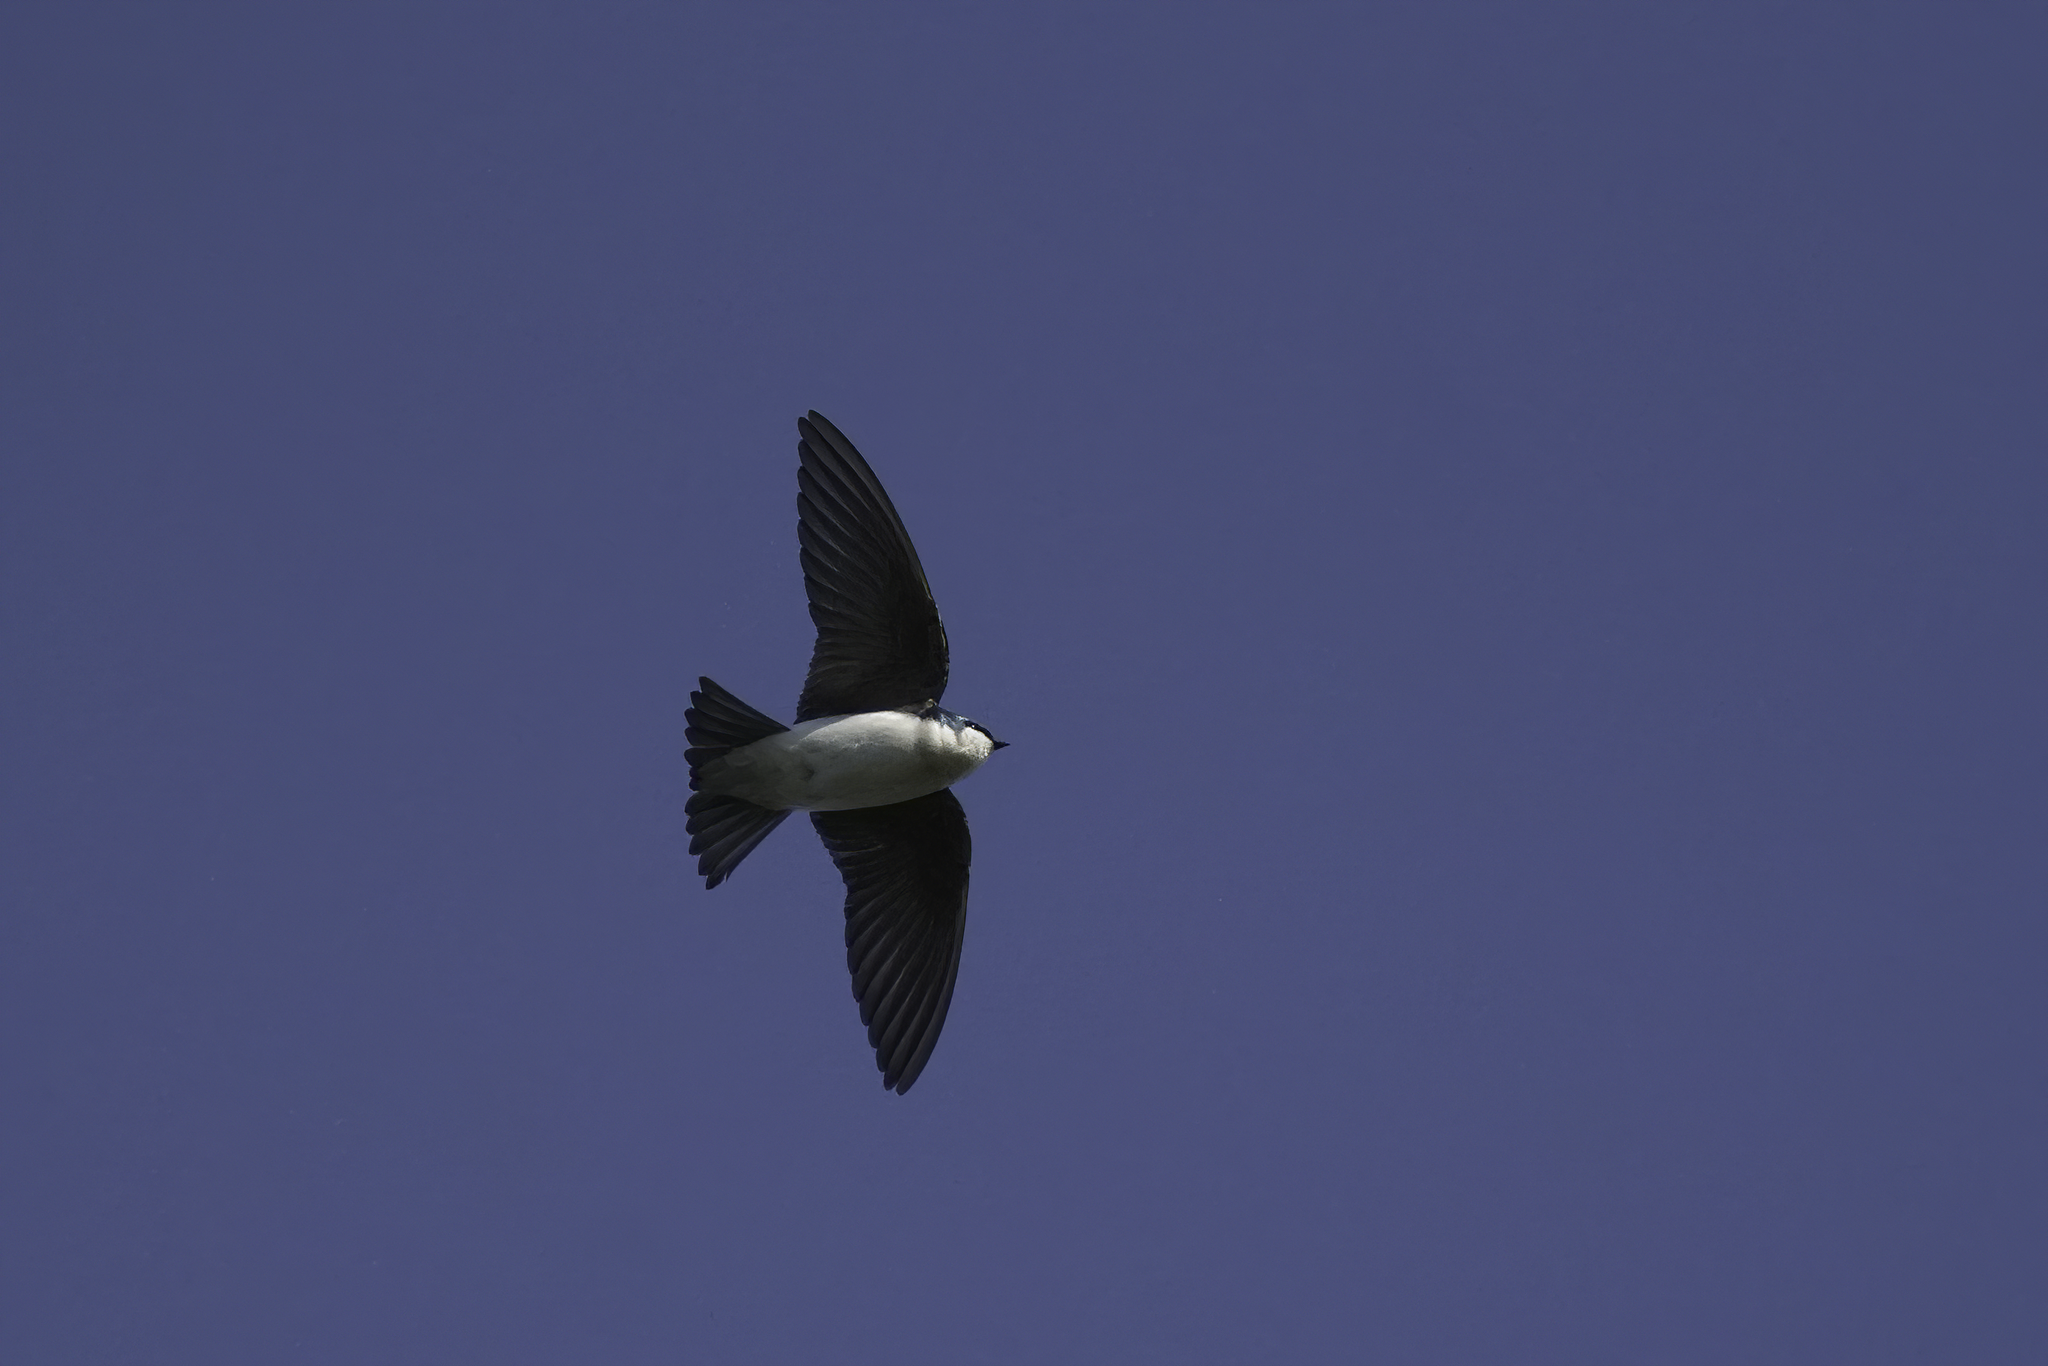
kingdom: Animalia
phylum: Chordata
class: Aves
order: Passeriformes
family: Hirundinidae
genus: Tachycineta
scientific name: Tachycineta bicolor
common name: Tree swallow
